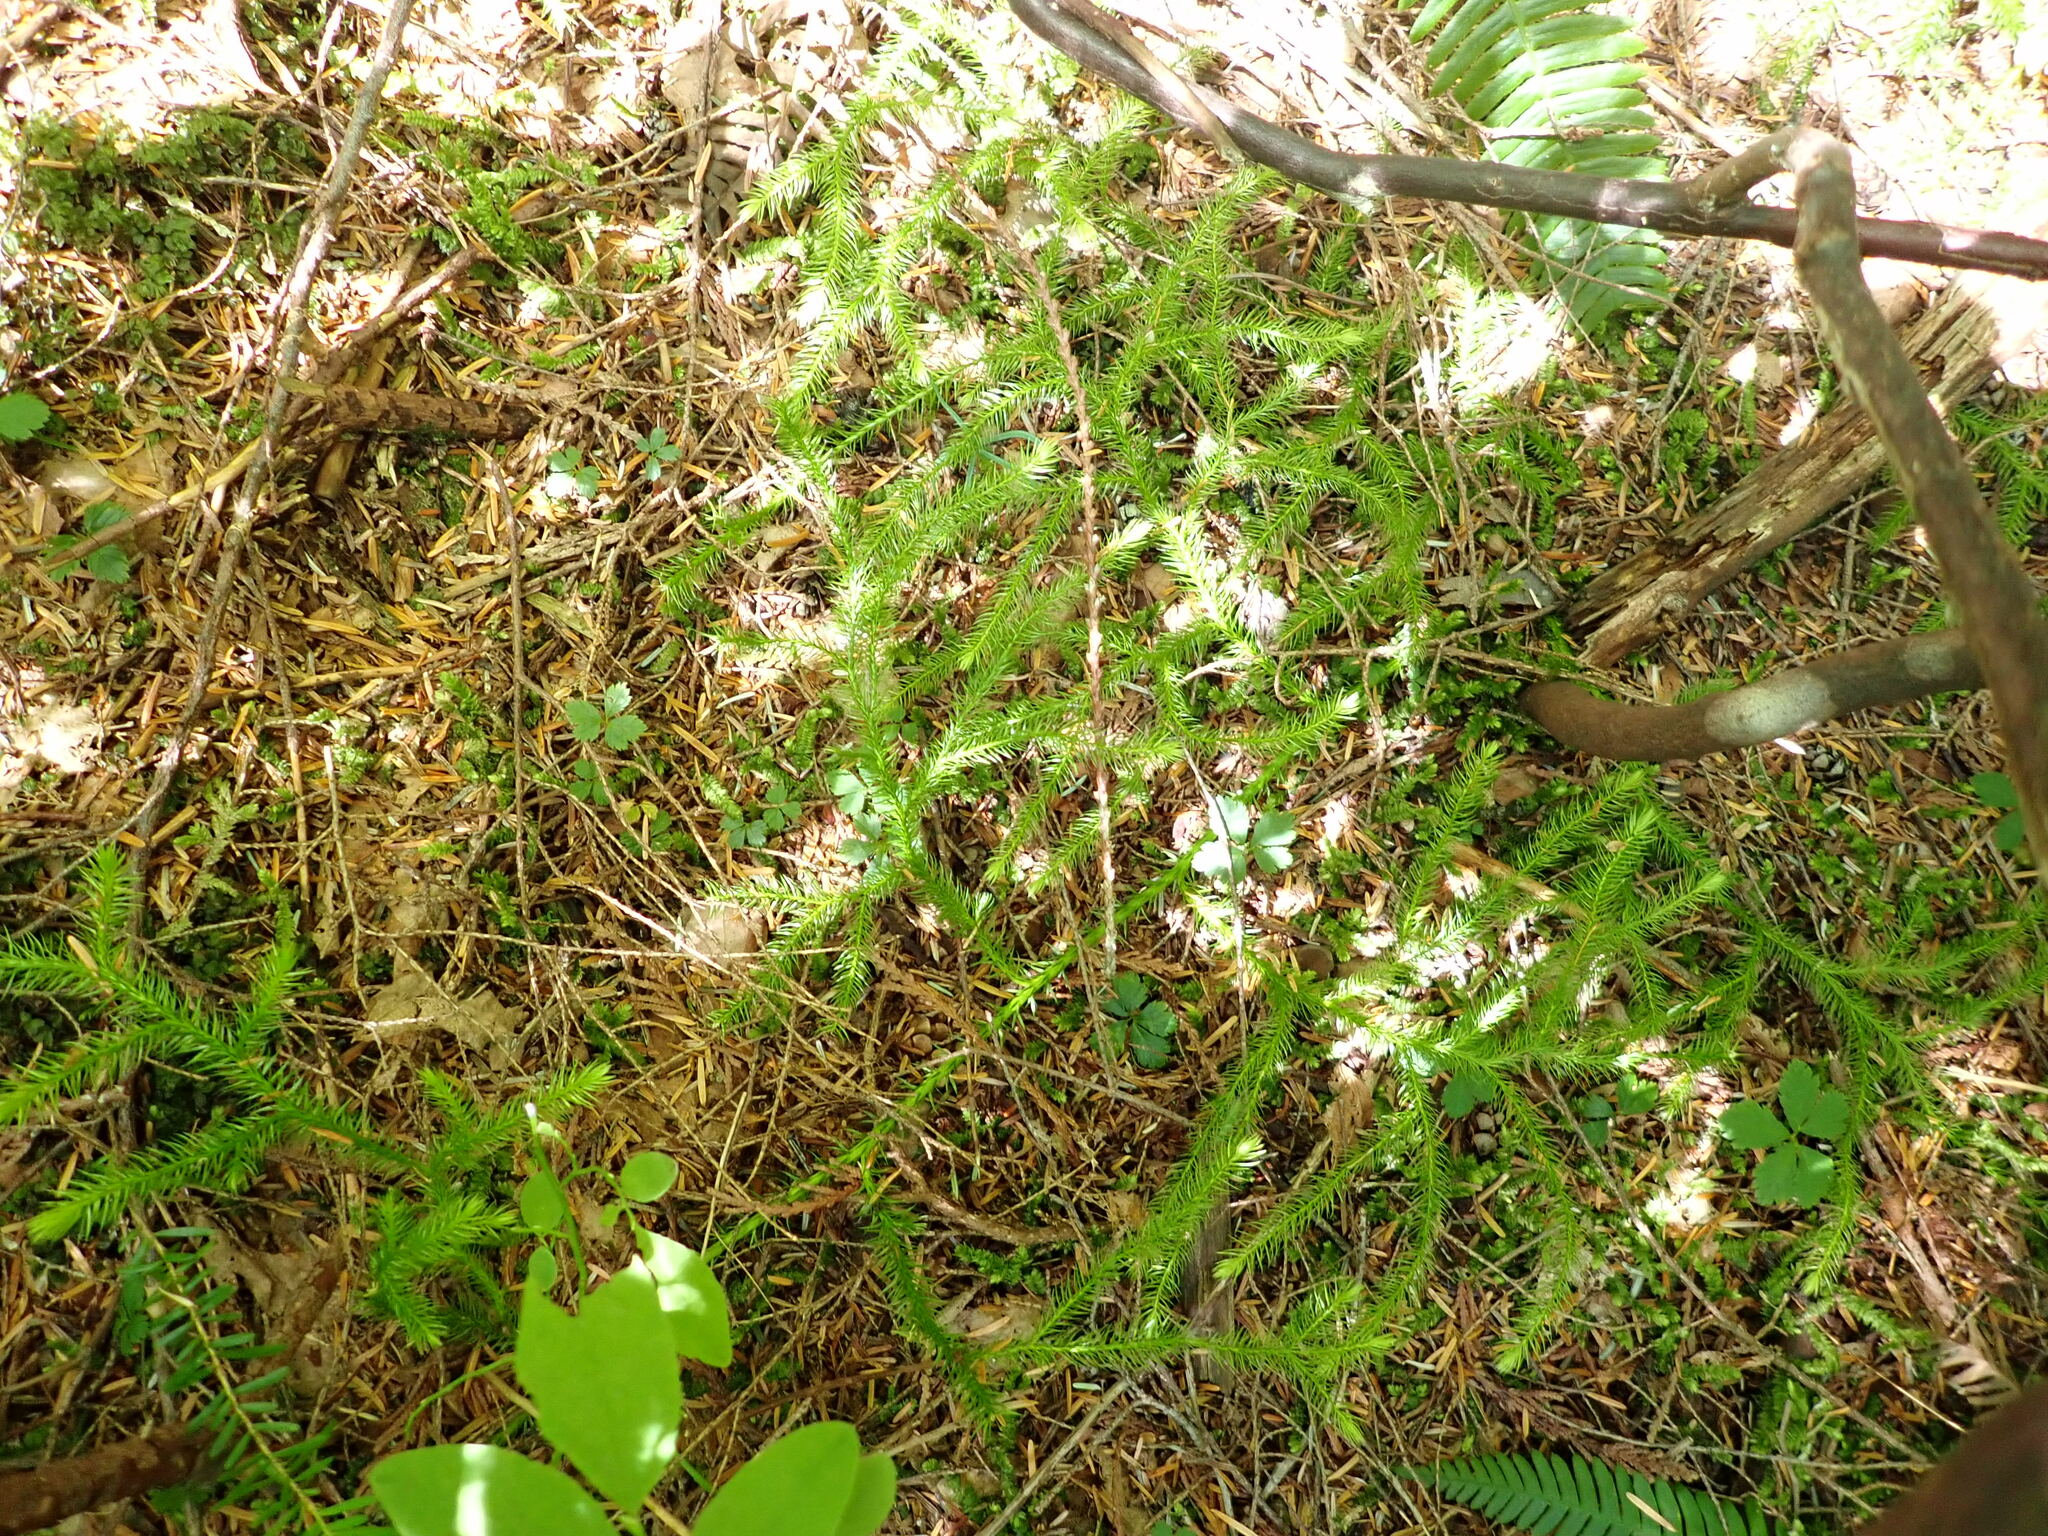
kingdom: Plantae
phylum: Tracheophyta
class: Lycopodiopsida
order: Lycopodiales
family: Lycopodiaceae
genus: Lycopodium
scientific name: Lycopodium clavatum
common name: Stag's-horn clubmoss
